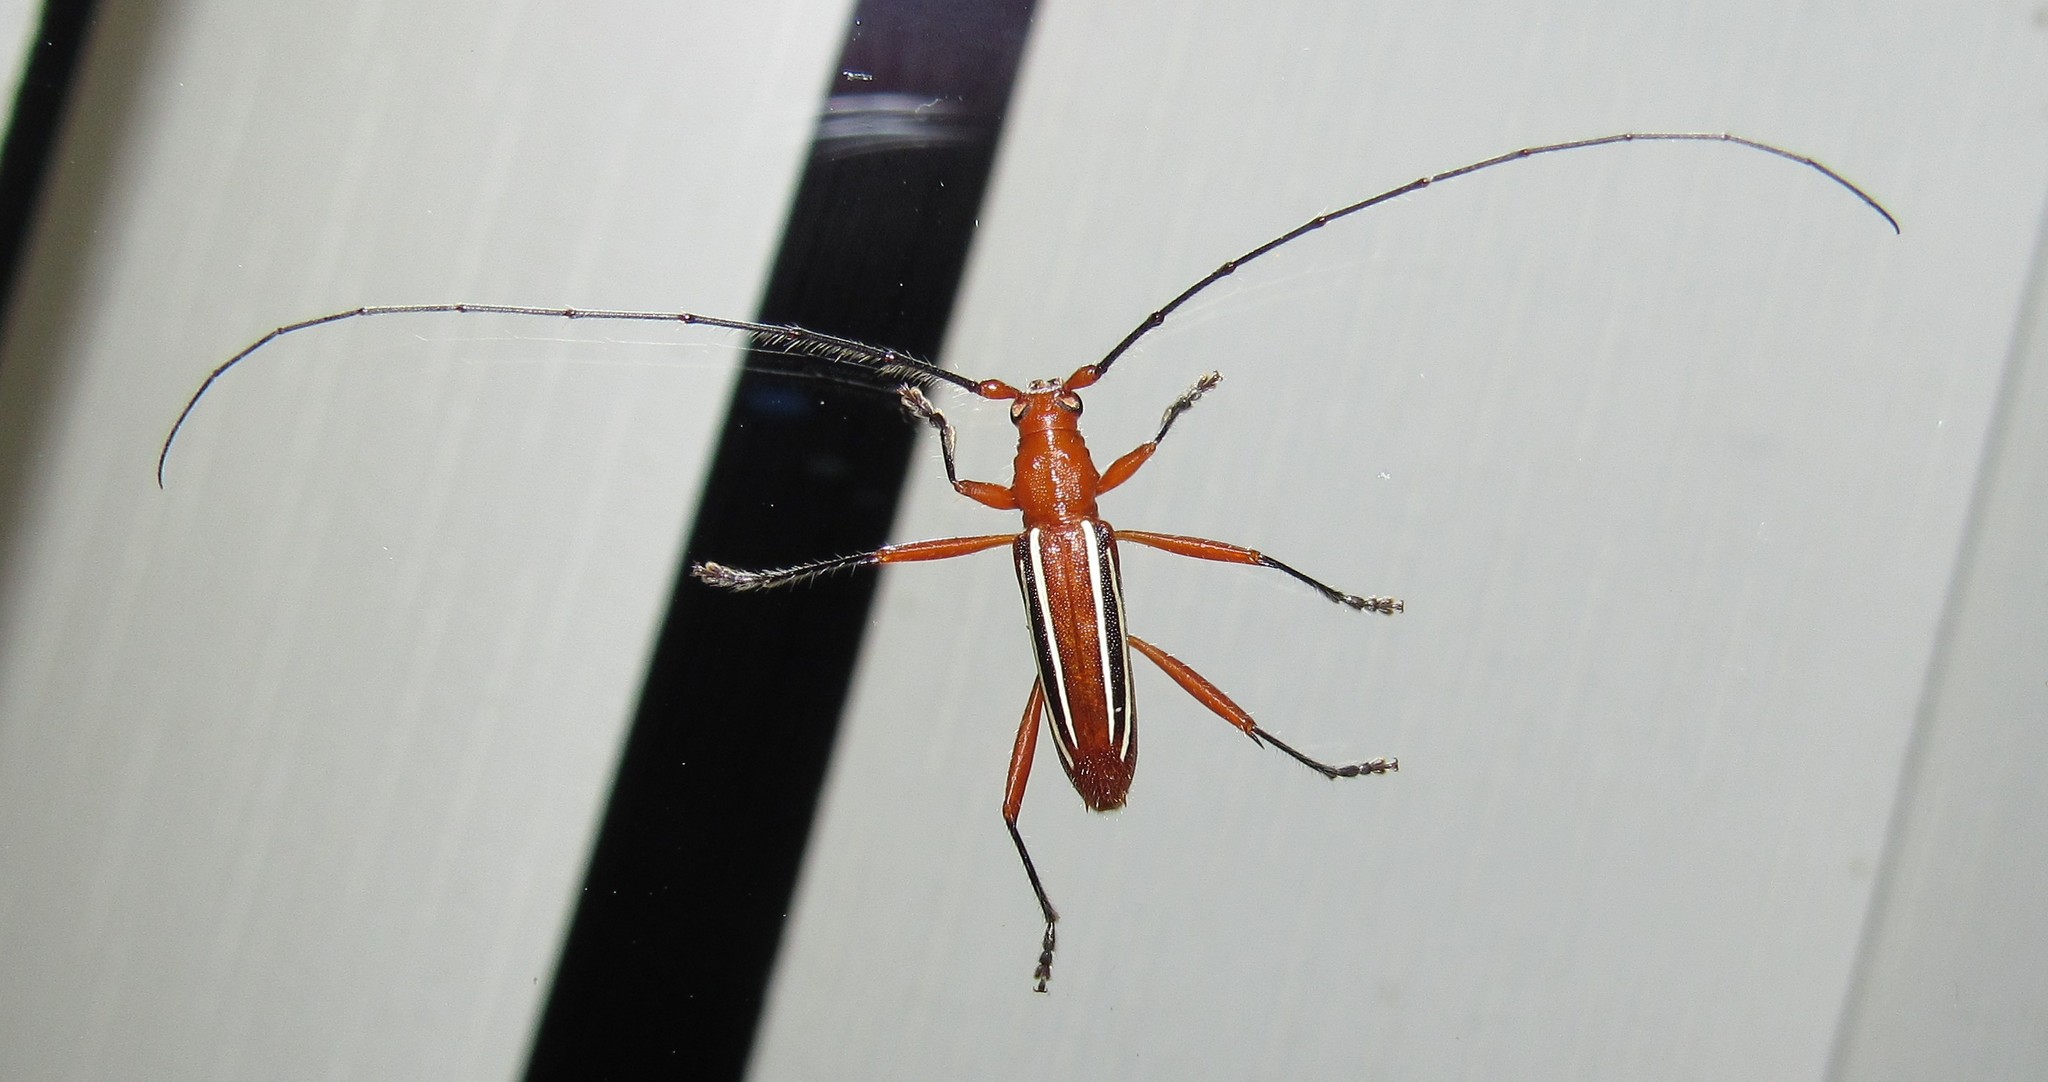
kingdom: Animalia
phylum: Arthropoda
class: Insecta
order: Coleoptera
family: Cerambycidae
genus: Erosida
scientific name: Erosida gratiosa
